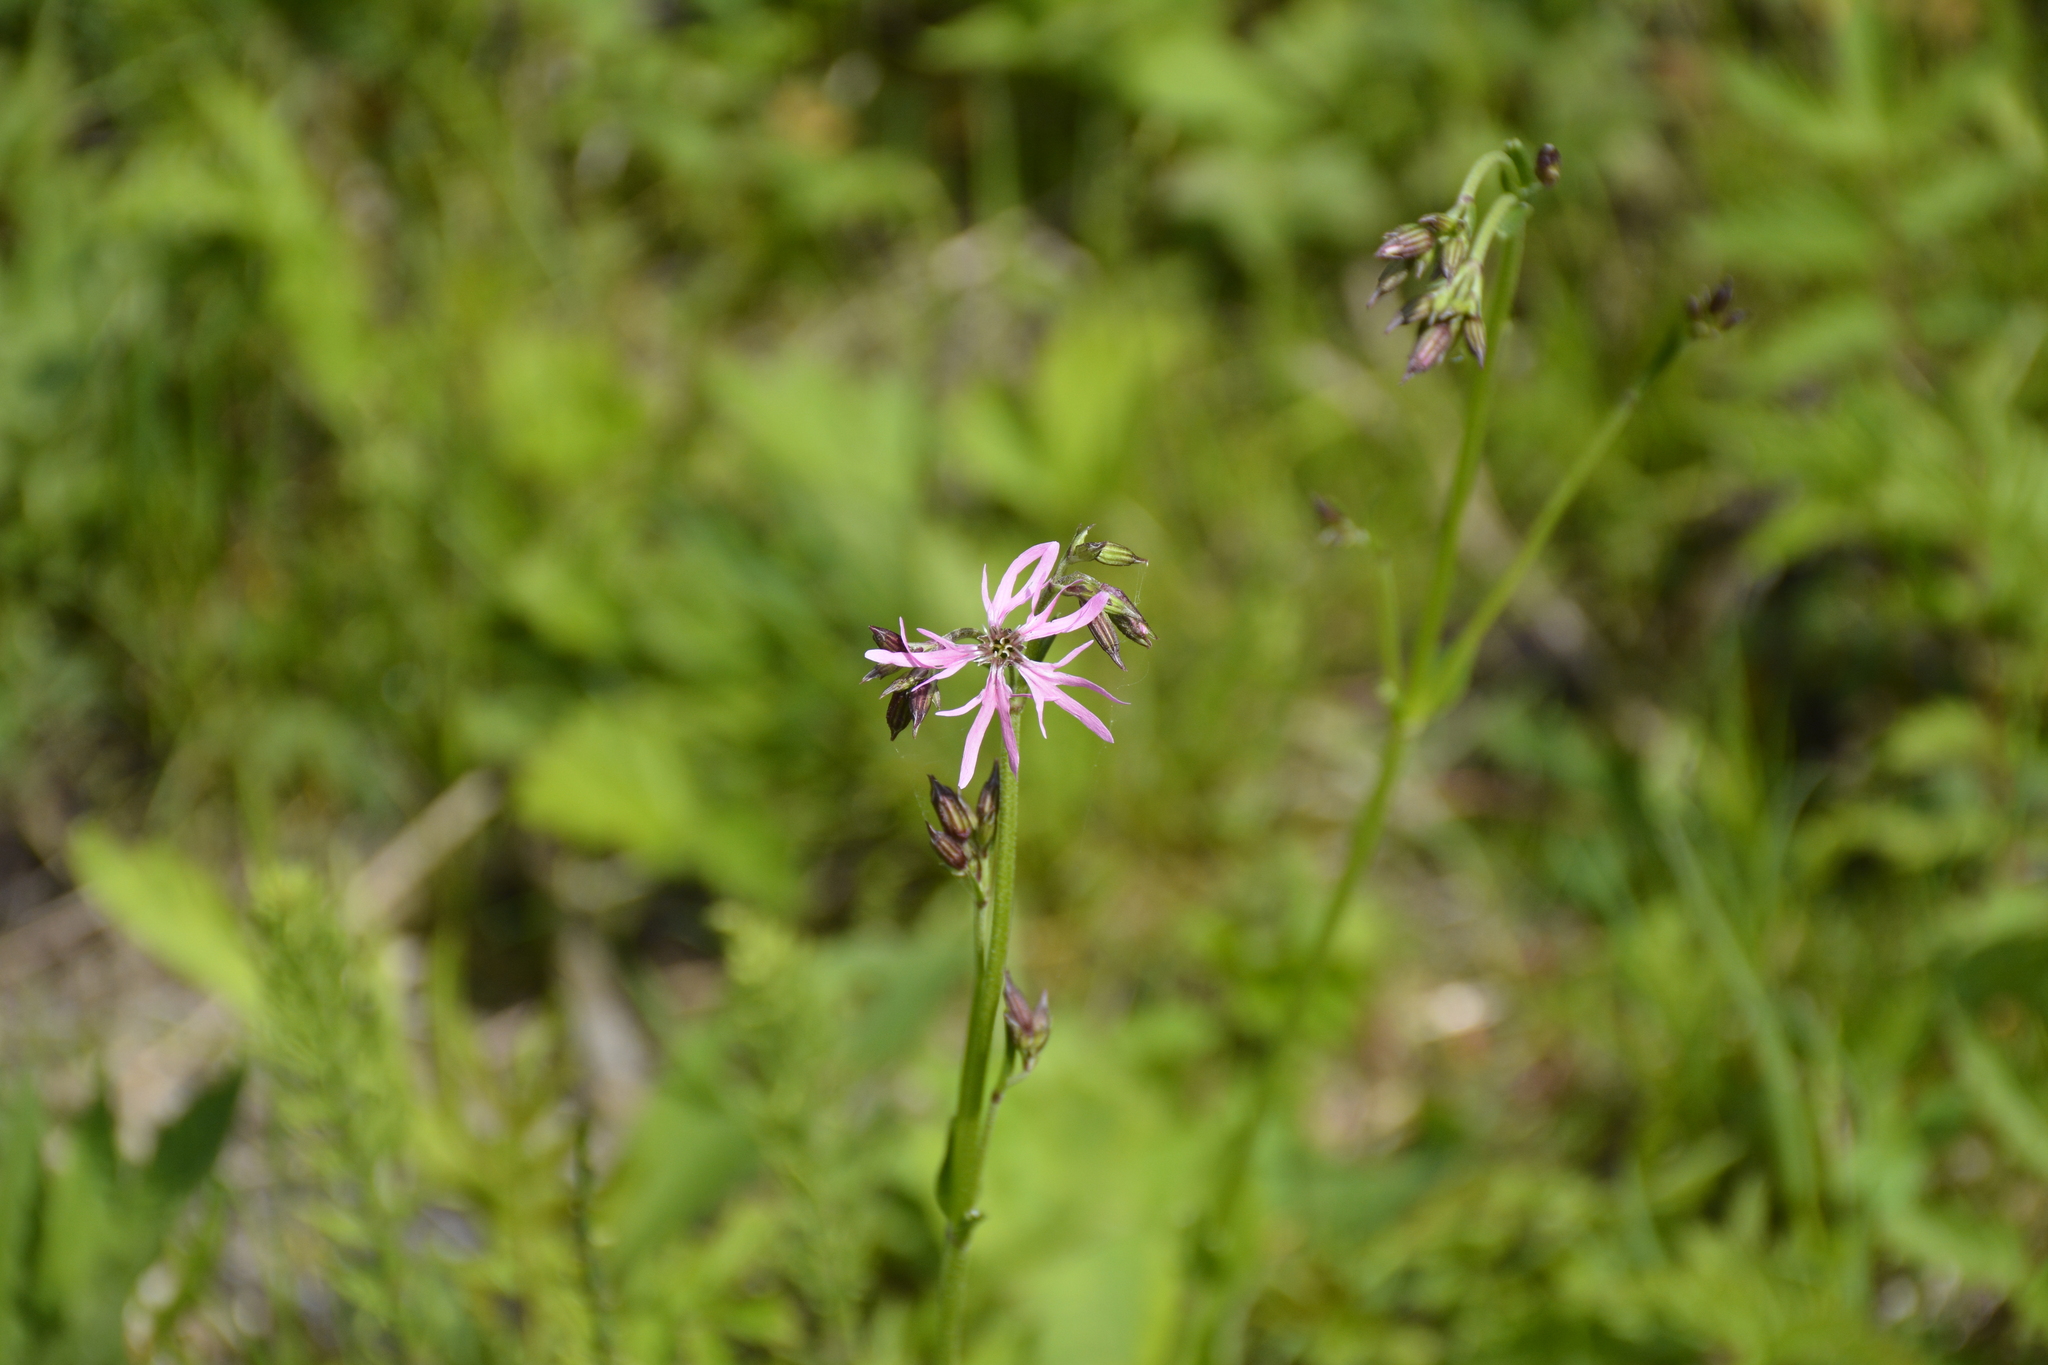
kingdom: Plantae
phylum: Tracheophyta
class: Magnoliopsida
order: Caryophyllales
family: Caryophyllaceae
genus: Silene
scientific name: Silene flos-cuculi
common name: Ragged-robin
